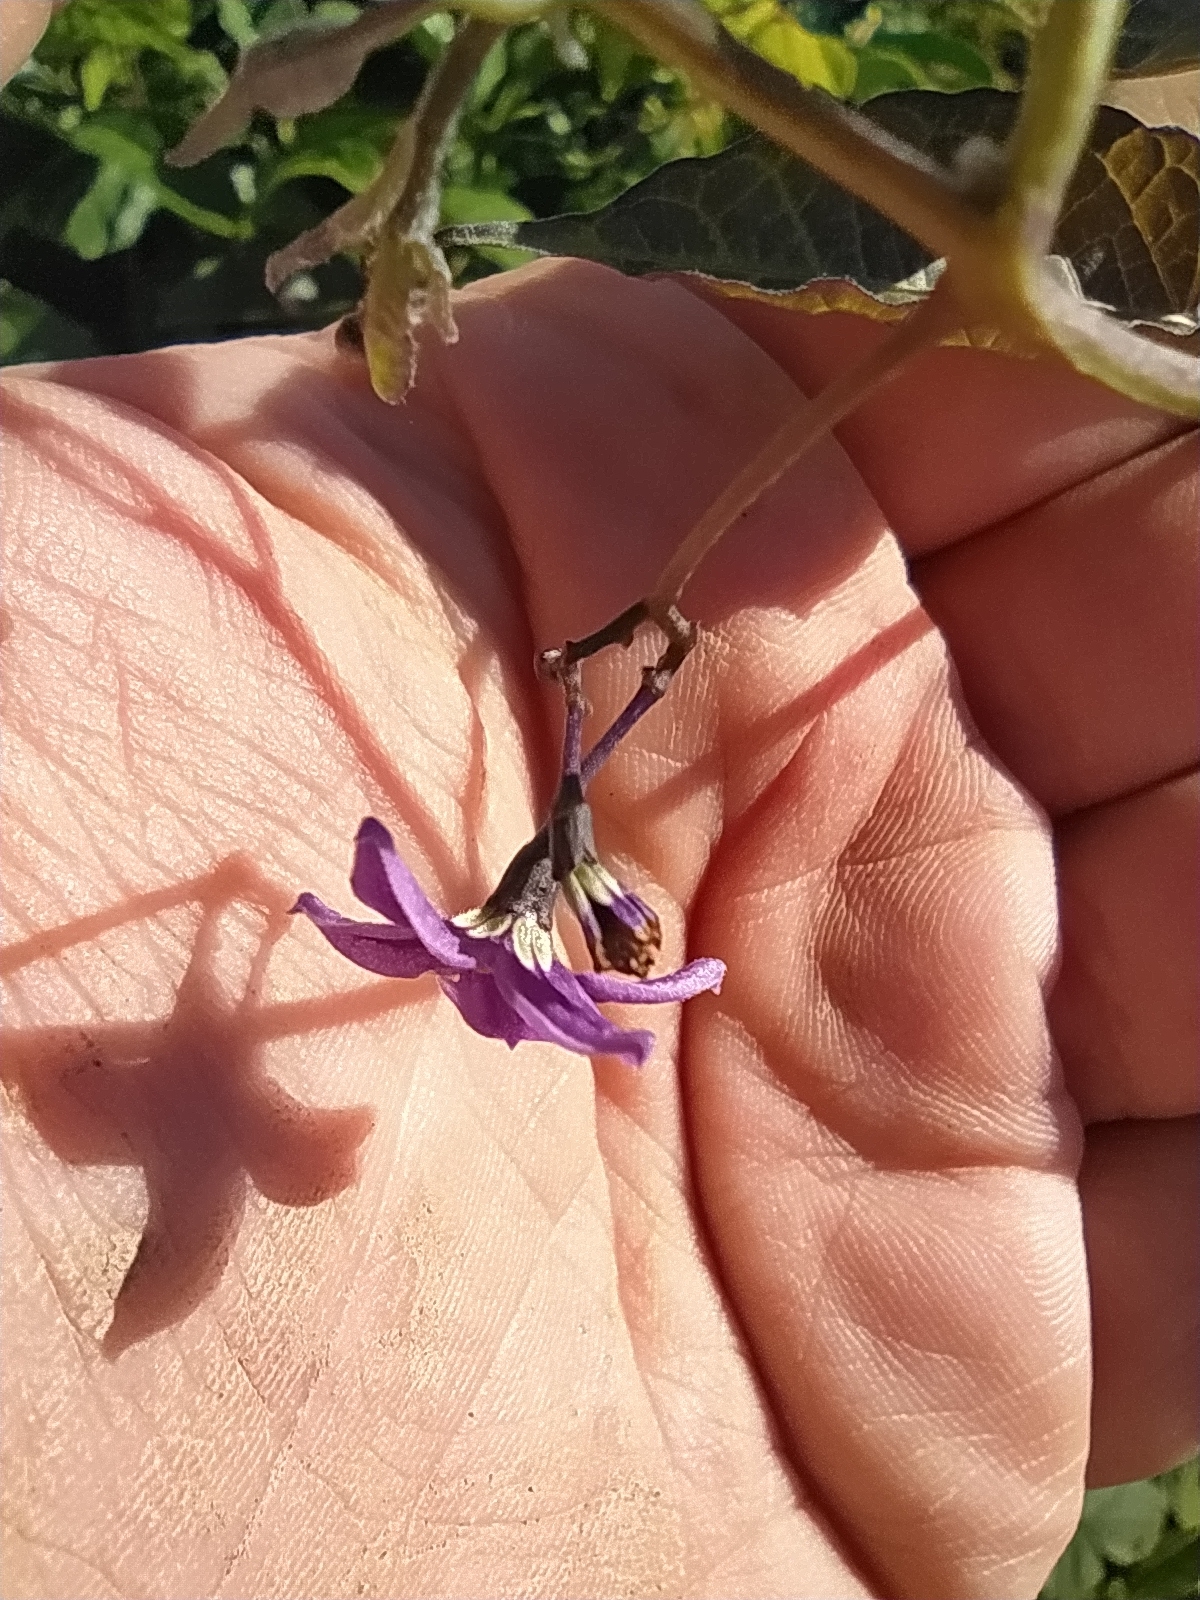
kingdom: Plantae
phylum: Tracheophyta
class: Magnoliopsida
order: Solanales
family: Solanaceae
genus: Solanum
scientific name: Solanum dulcamara
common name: Climbing nightshade
